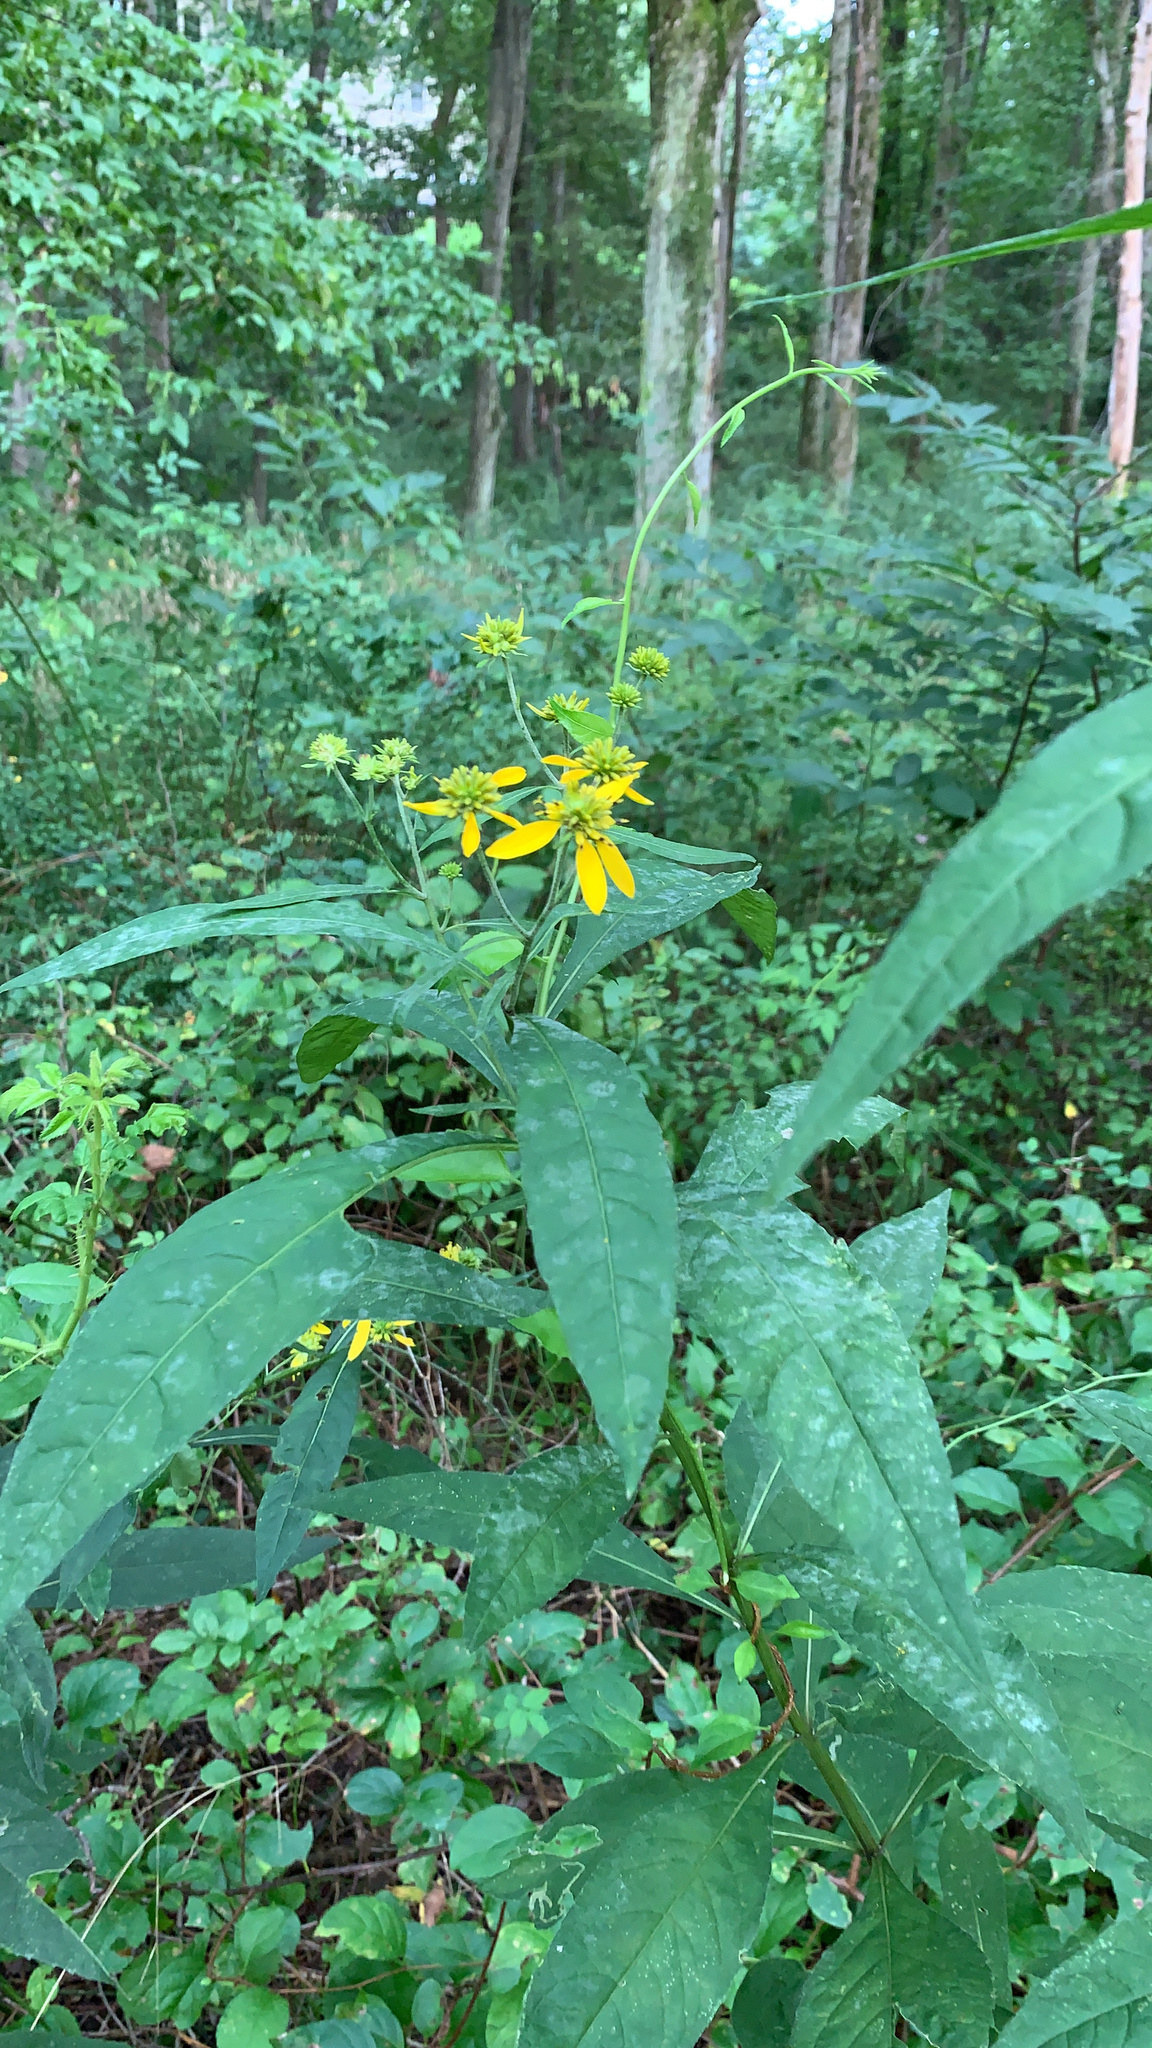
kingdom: Plantae
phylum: Tracheophyta
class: Magnoliopsida
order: Asterales
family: Asteraceae
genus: Verbesina
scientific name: Verbesina alternifolia
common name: Wingstem
